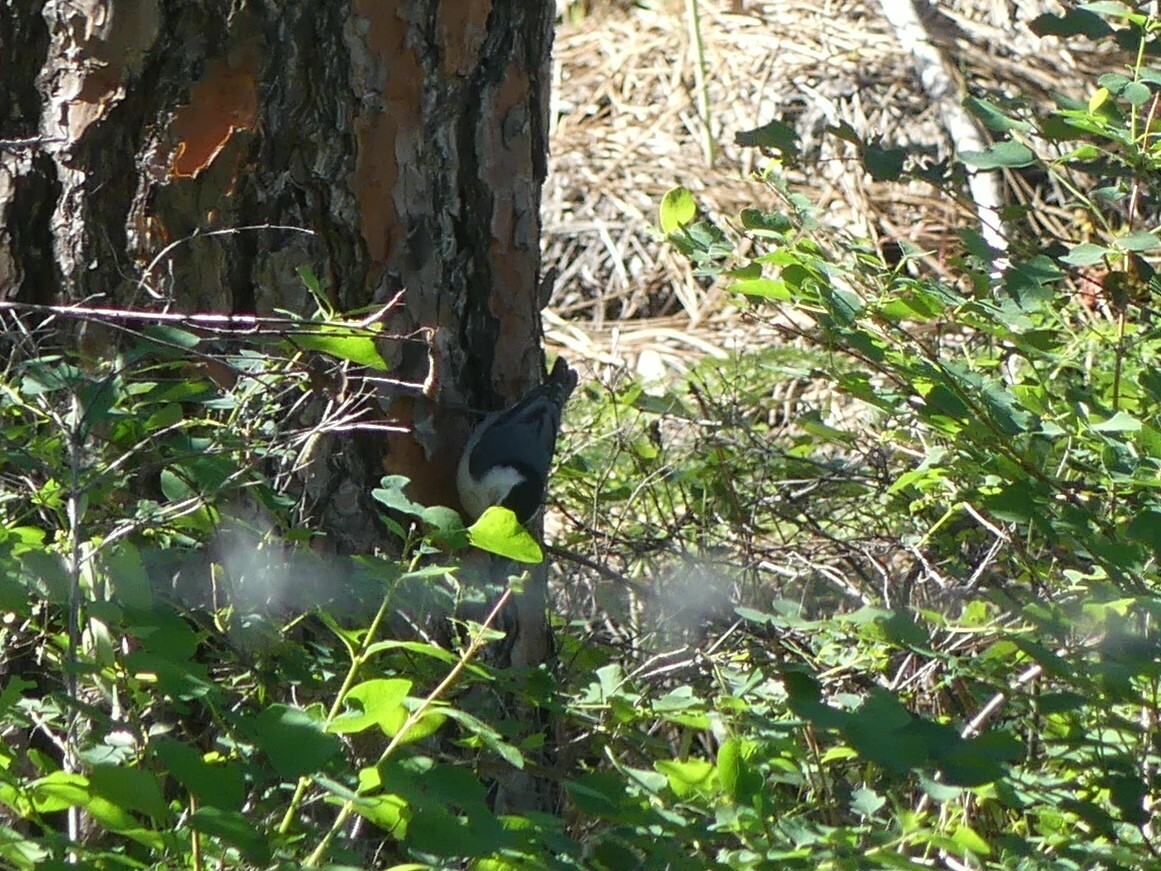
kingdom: Animalia
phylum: Chordata
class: Aves
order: Passeriformes
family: Sittidae
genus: Sitta
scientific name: Sitta carolinensis
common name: White-breasted nuthatch
